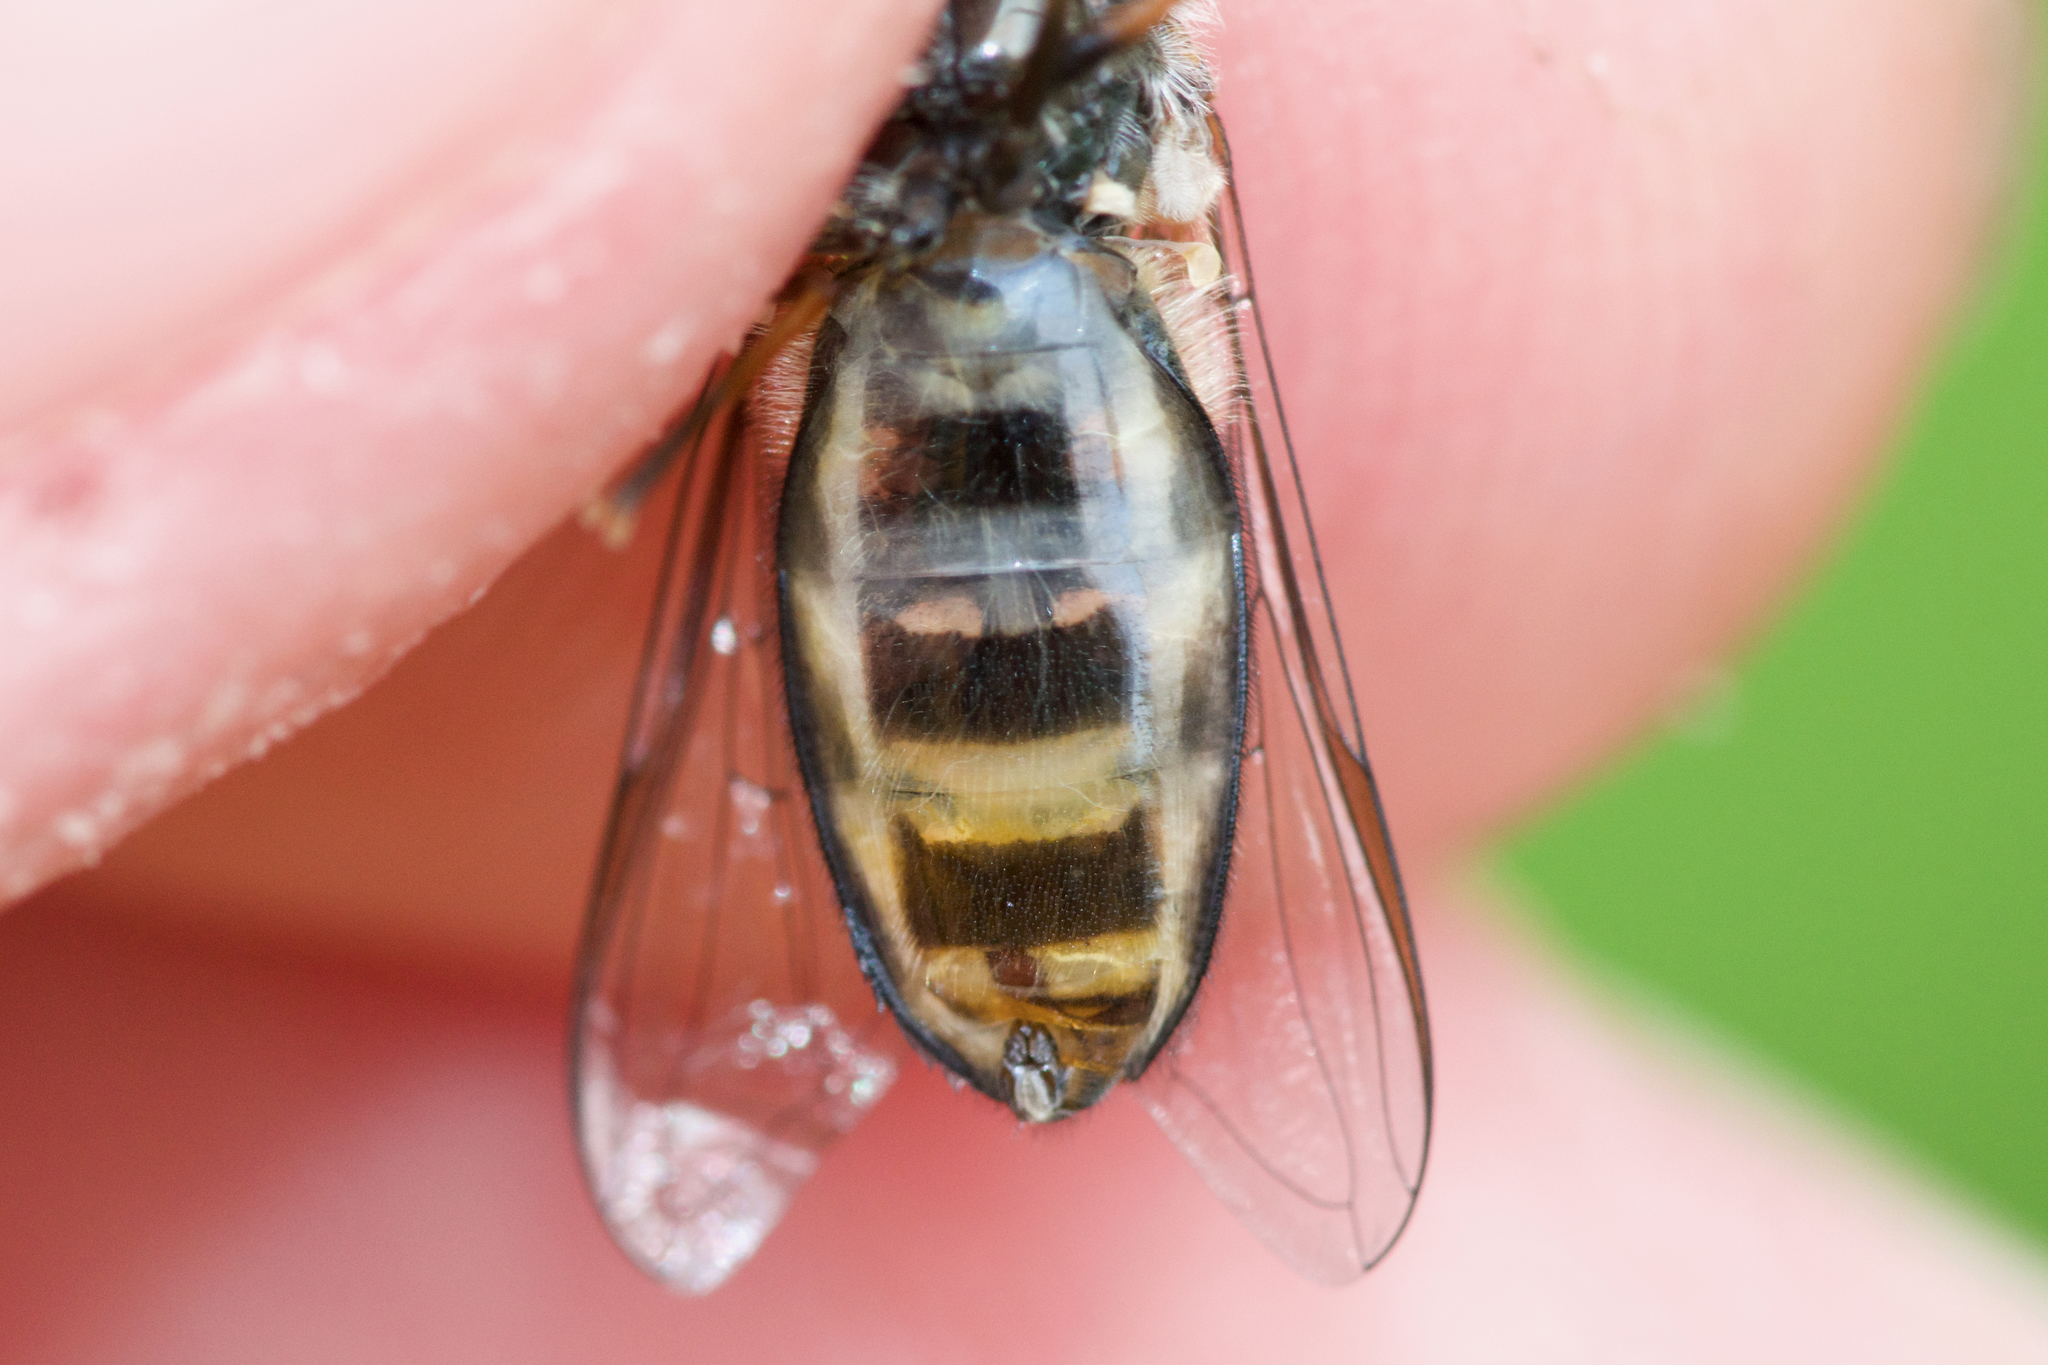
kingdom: Animalia
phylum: Arthropoda
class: Insecta
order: Diptera
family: Syrphidae
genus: Eupeodes
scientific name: Eupeodes perplexus
